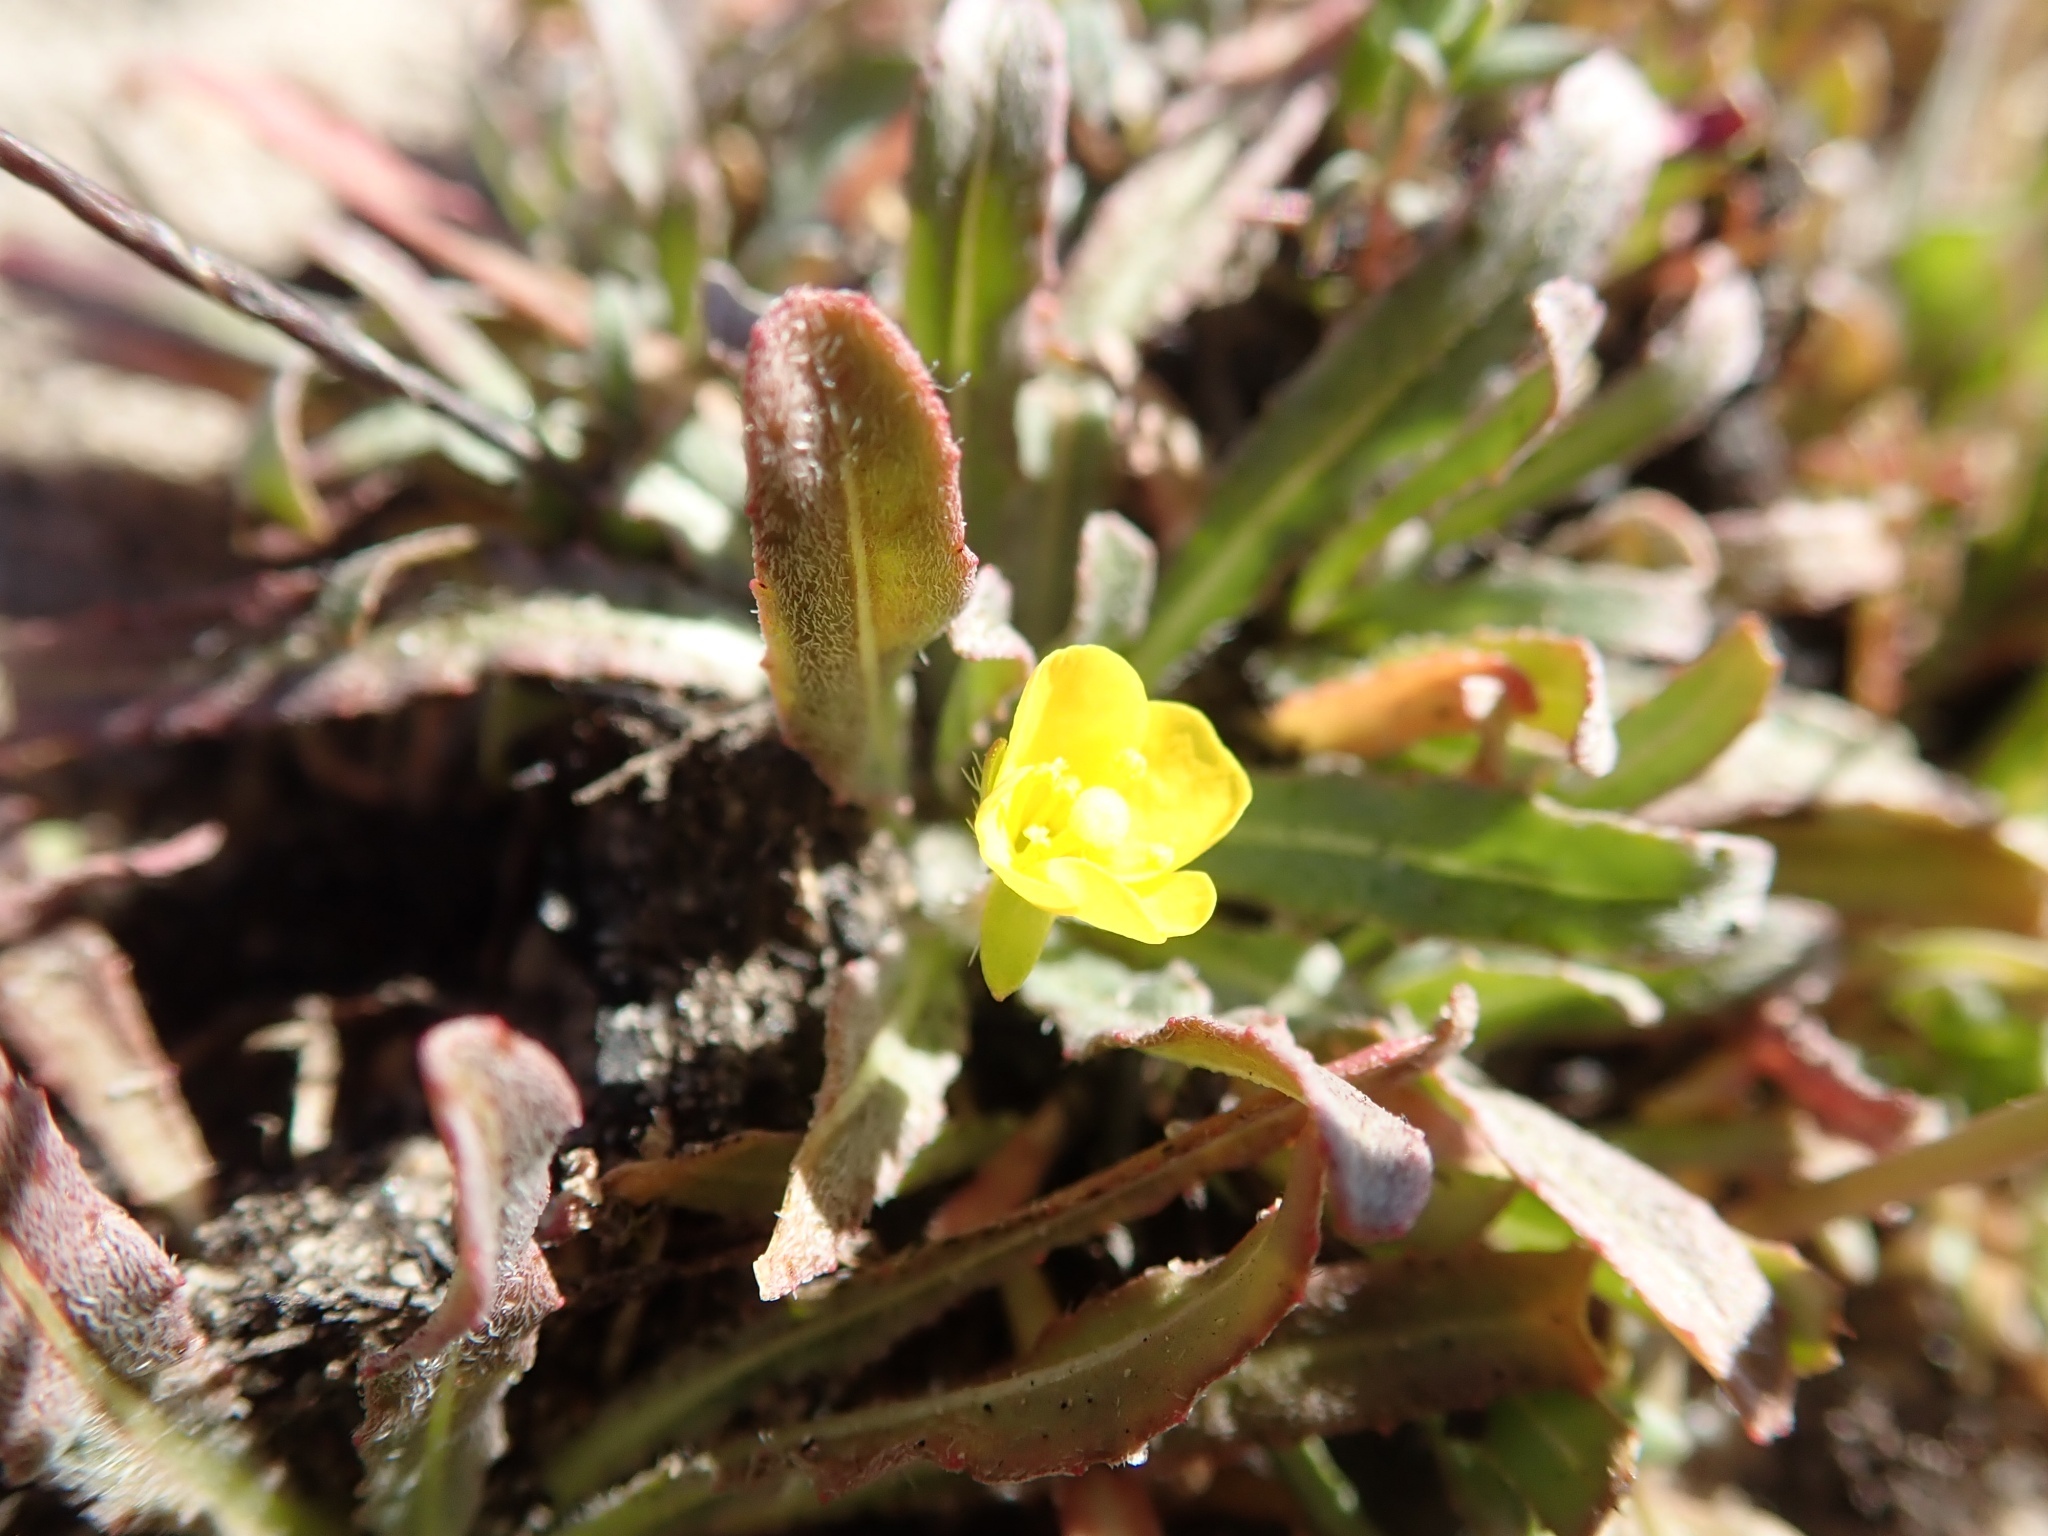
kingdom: Plantae
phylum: Tracheophyta
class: Magnoliopsida
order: Myrtales
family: Onagraceae
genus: Camissoniopsis
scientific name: Camissoniopsis micrantha
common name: Miniature suncup
